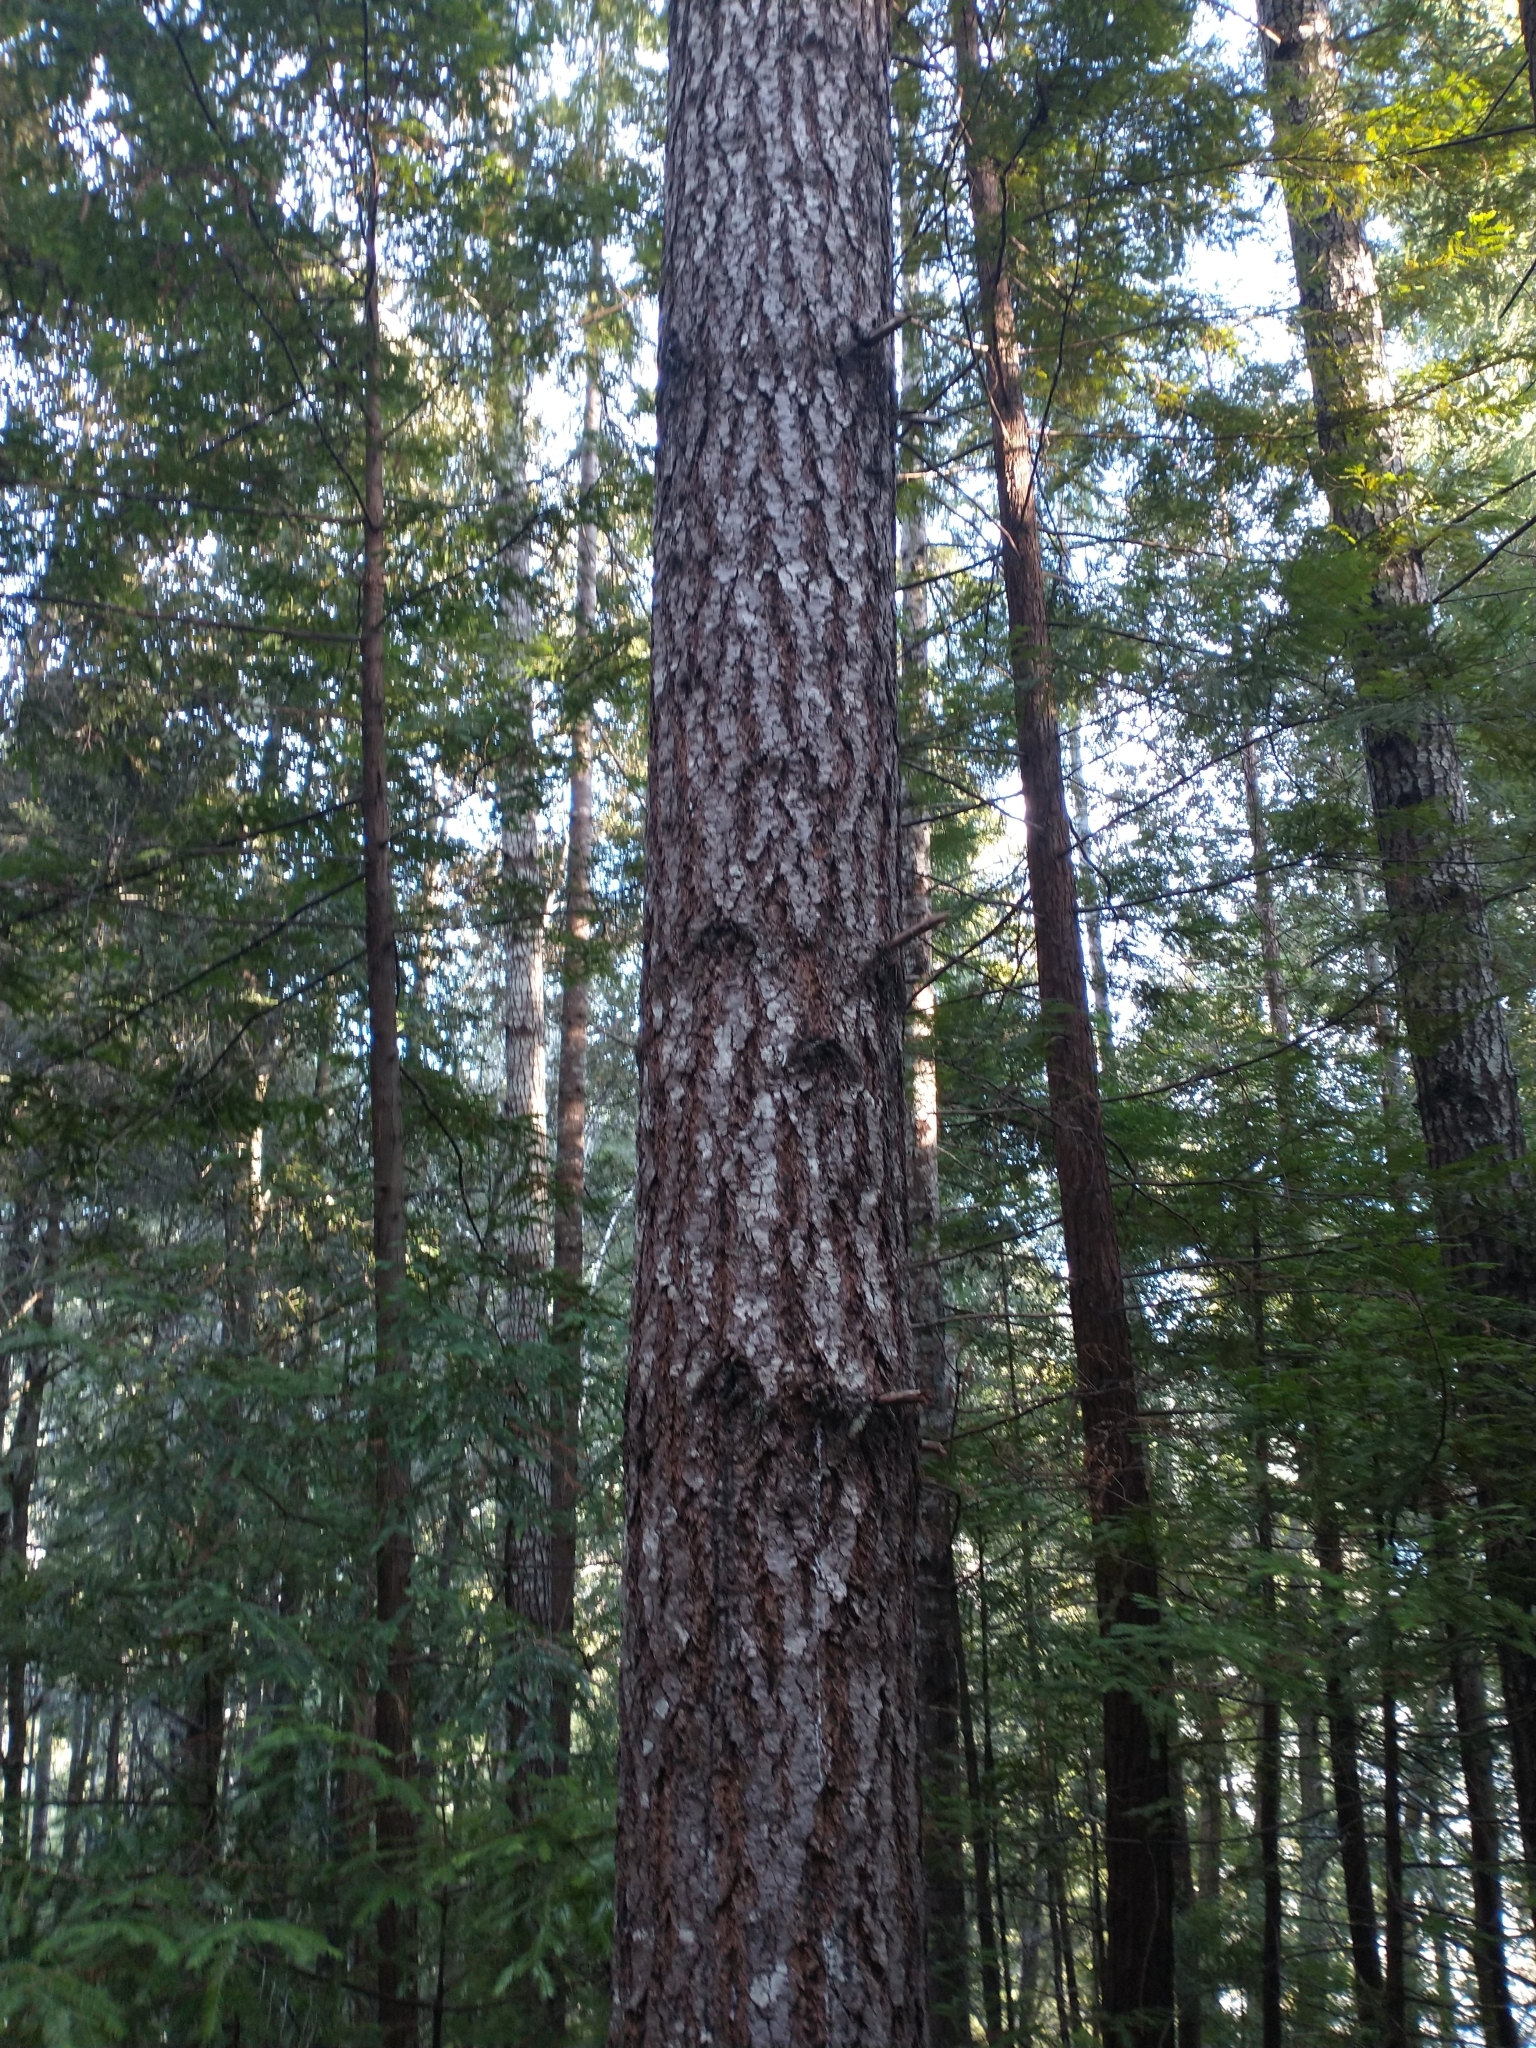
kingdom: Plantae
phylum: Tracheophyta
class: Pinopsida
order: Pinales
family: Pinaceae
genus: Pseudotsuga
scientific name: Pseudotsuga menziesii
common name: Douglas fir
